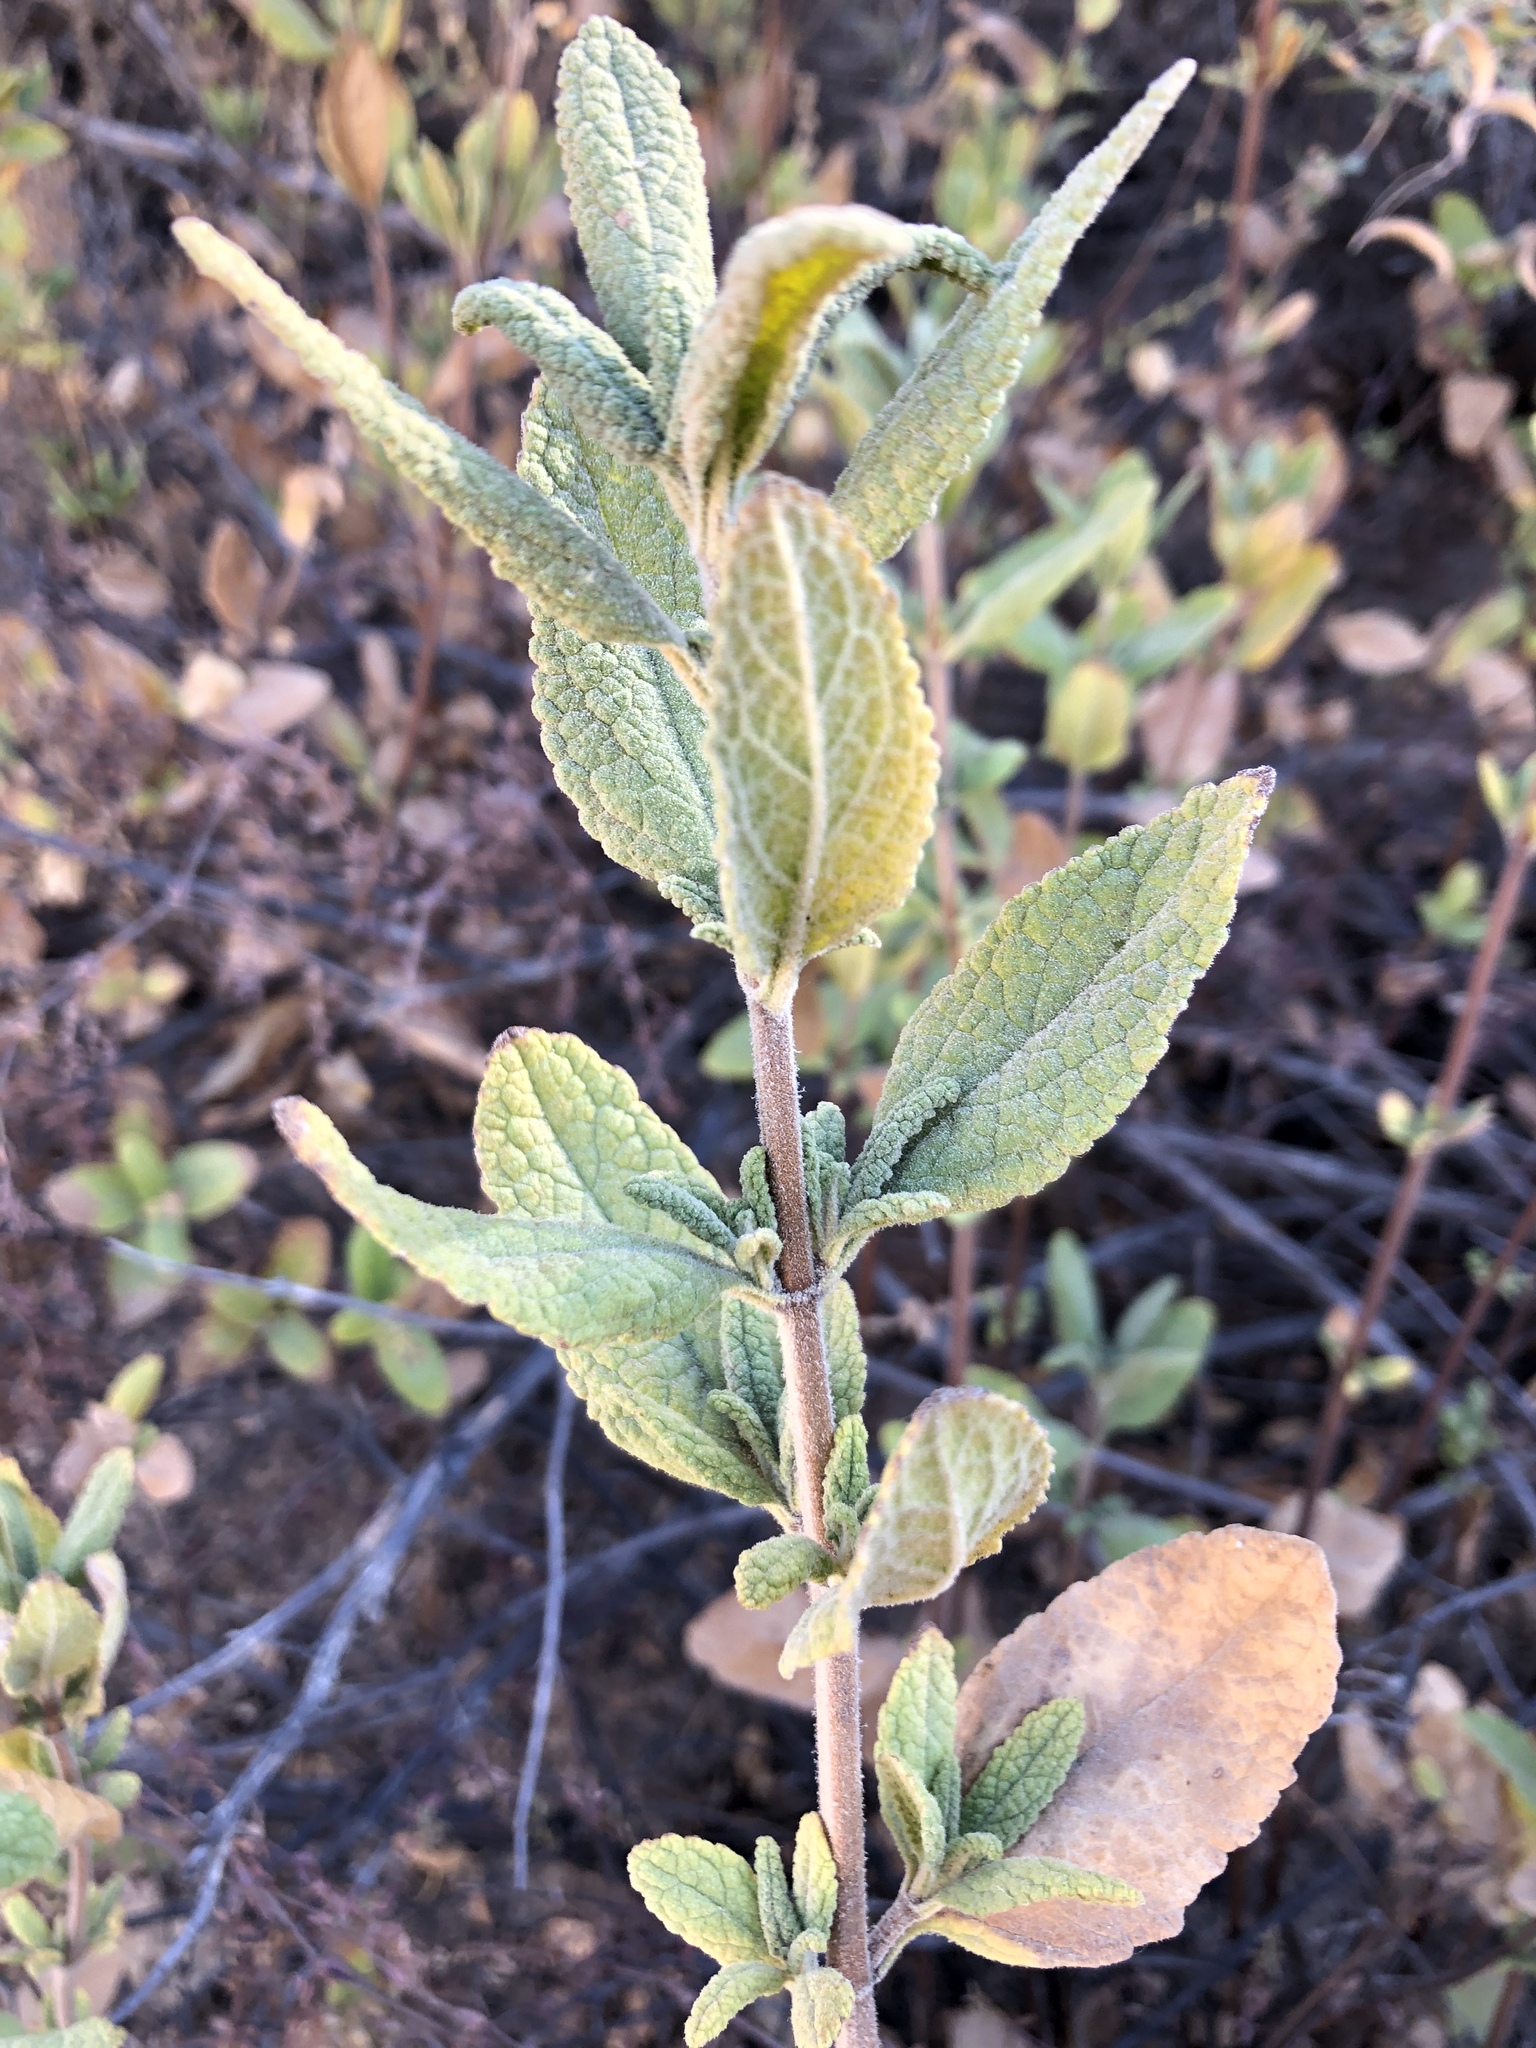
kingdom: Plantae
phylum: Tracheophyta
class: Magnoliopsida
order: Lamiales
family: Lamiaceae
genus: Lepechinia
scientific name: Lepechinia calycina
